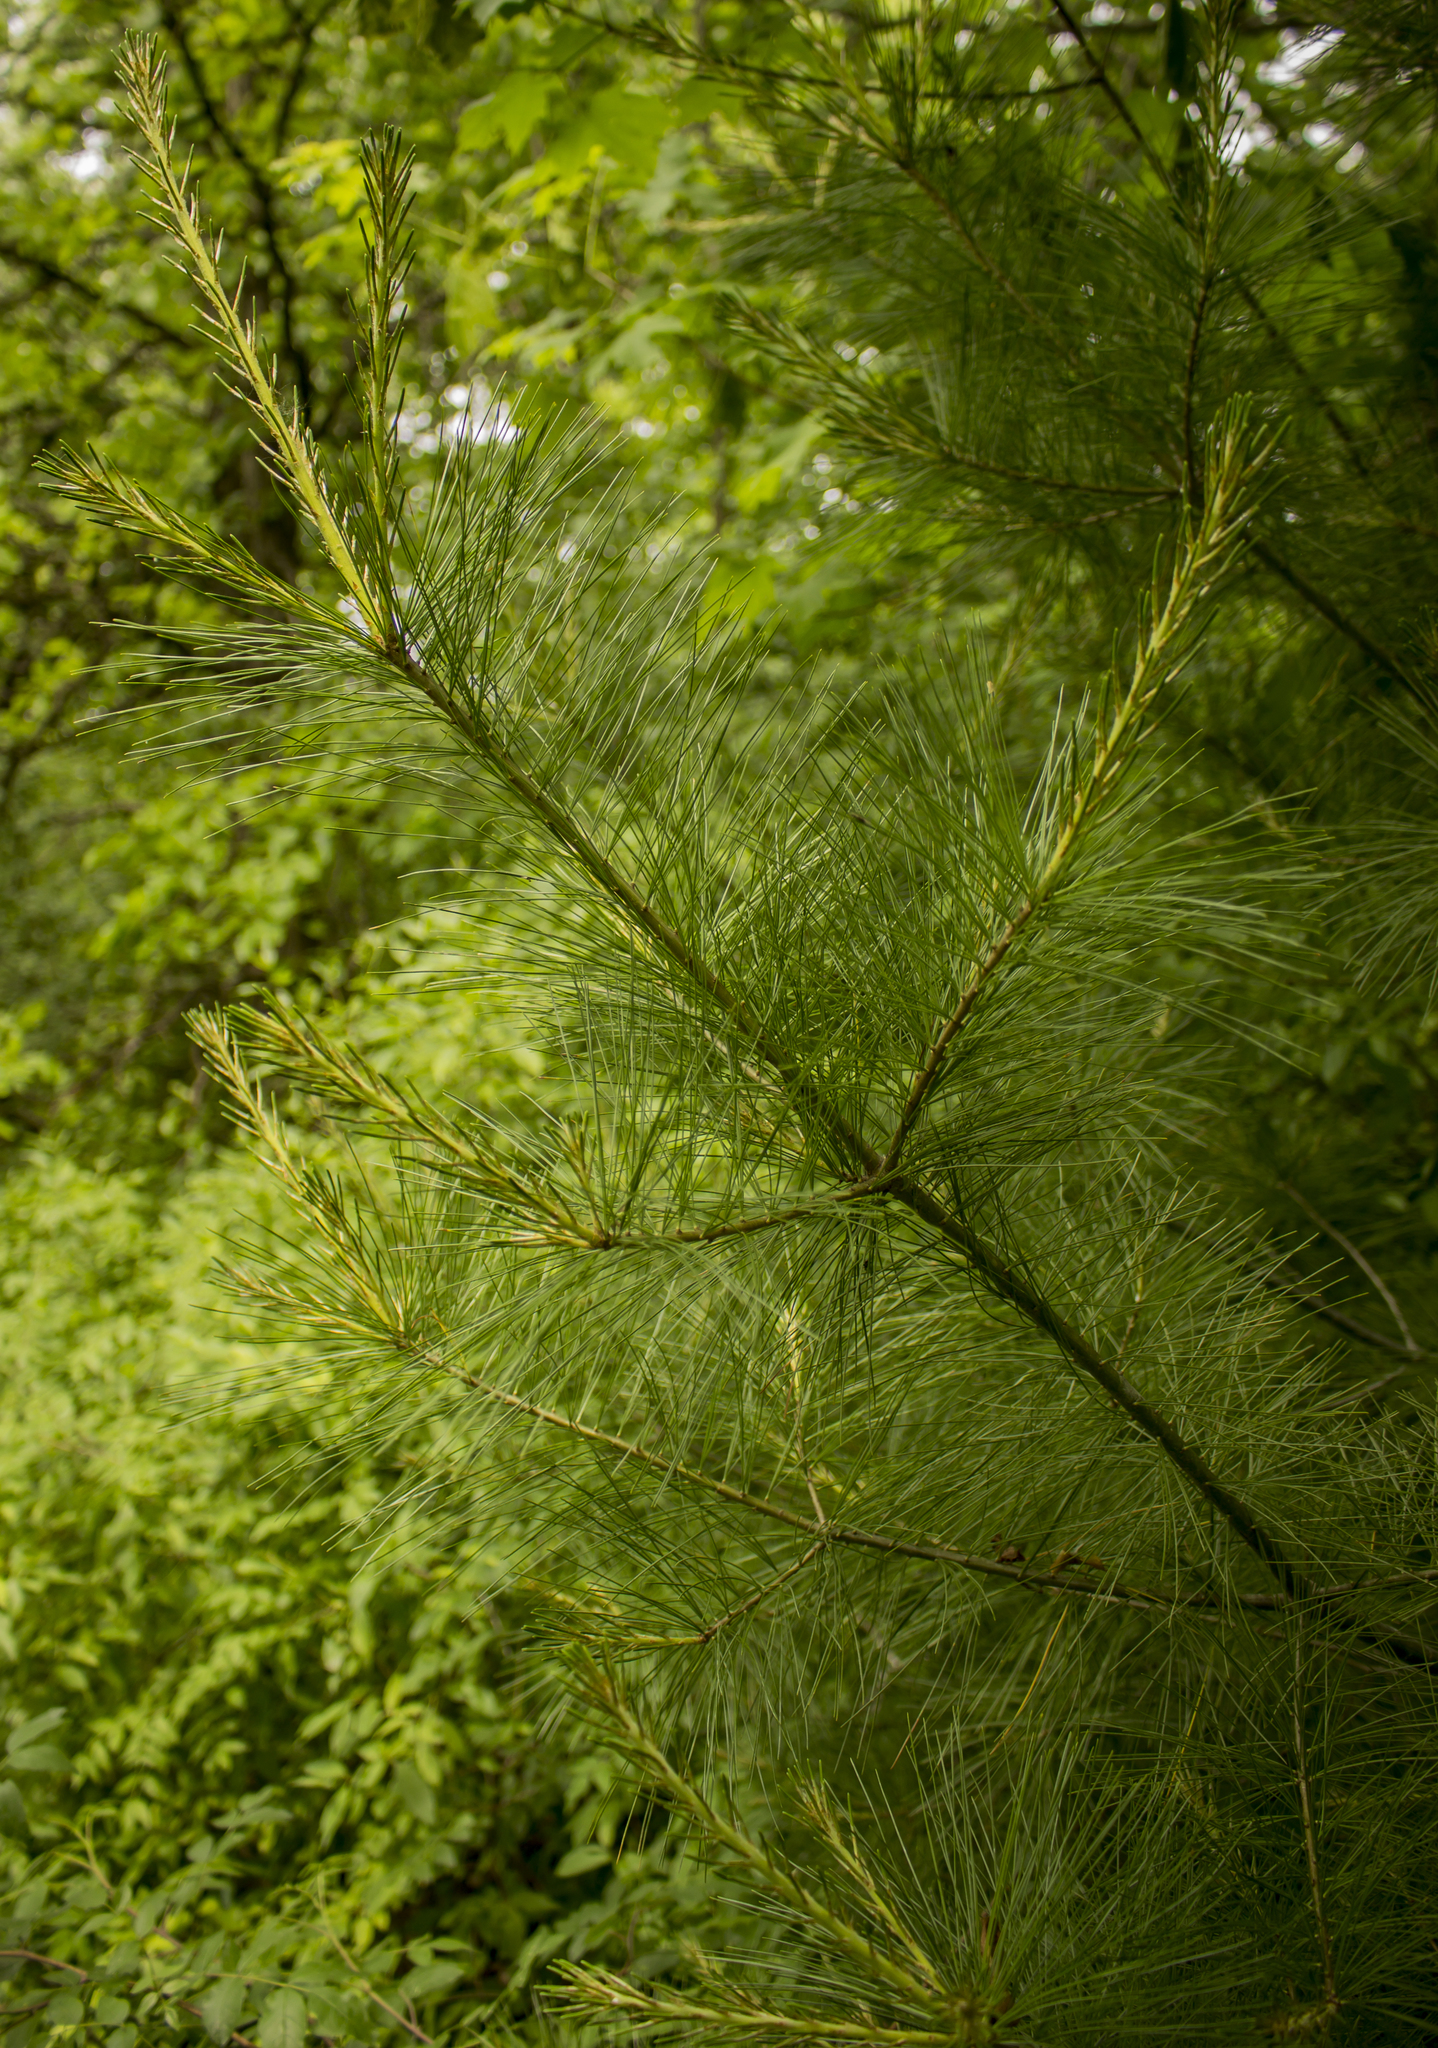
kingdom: Plantae
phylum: Tracheophyta
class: Pinopsida
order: Pinales
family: Pinaceae
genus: Pinus
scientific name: Pinus strobus
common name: Weymouth pine
